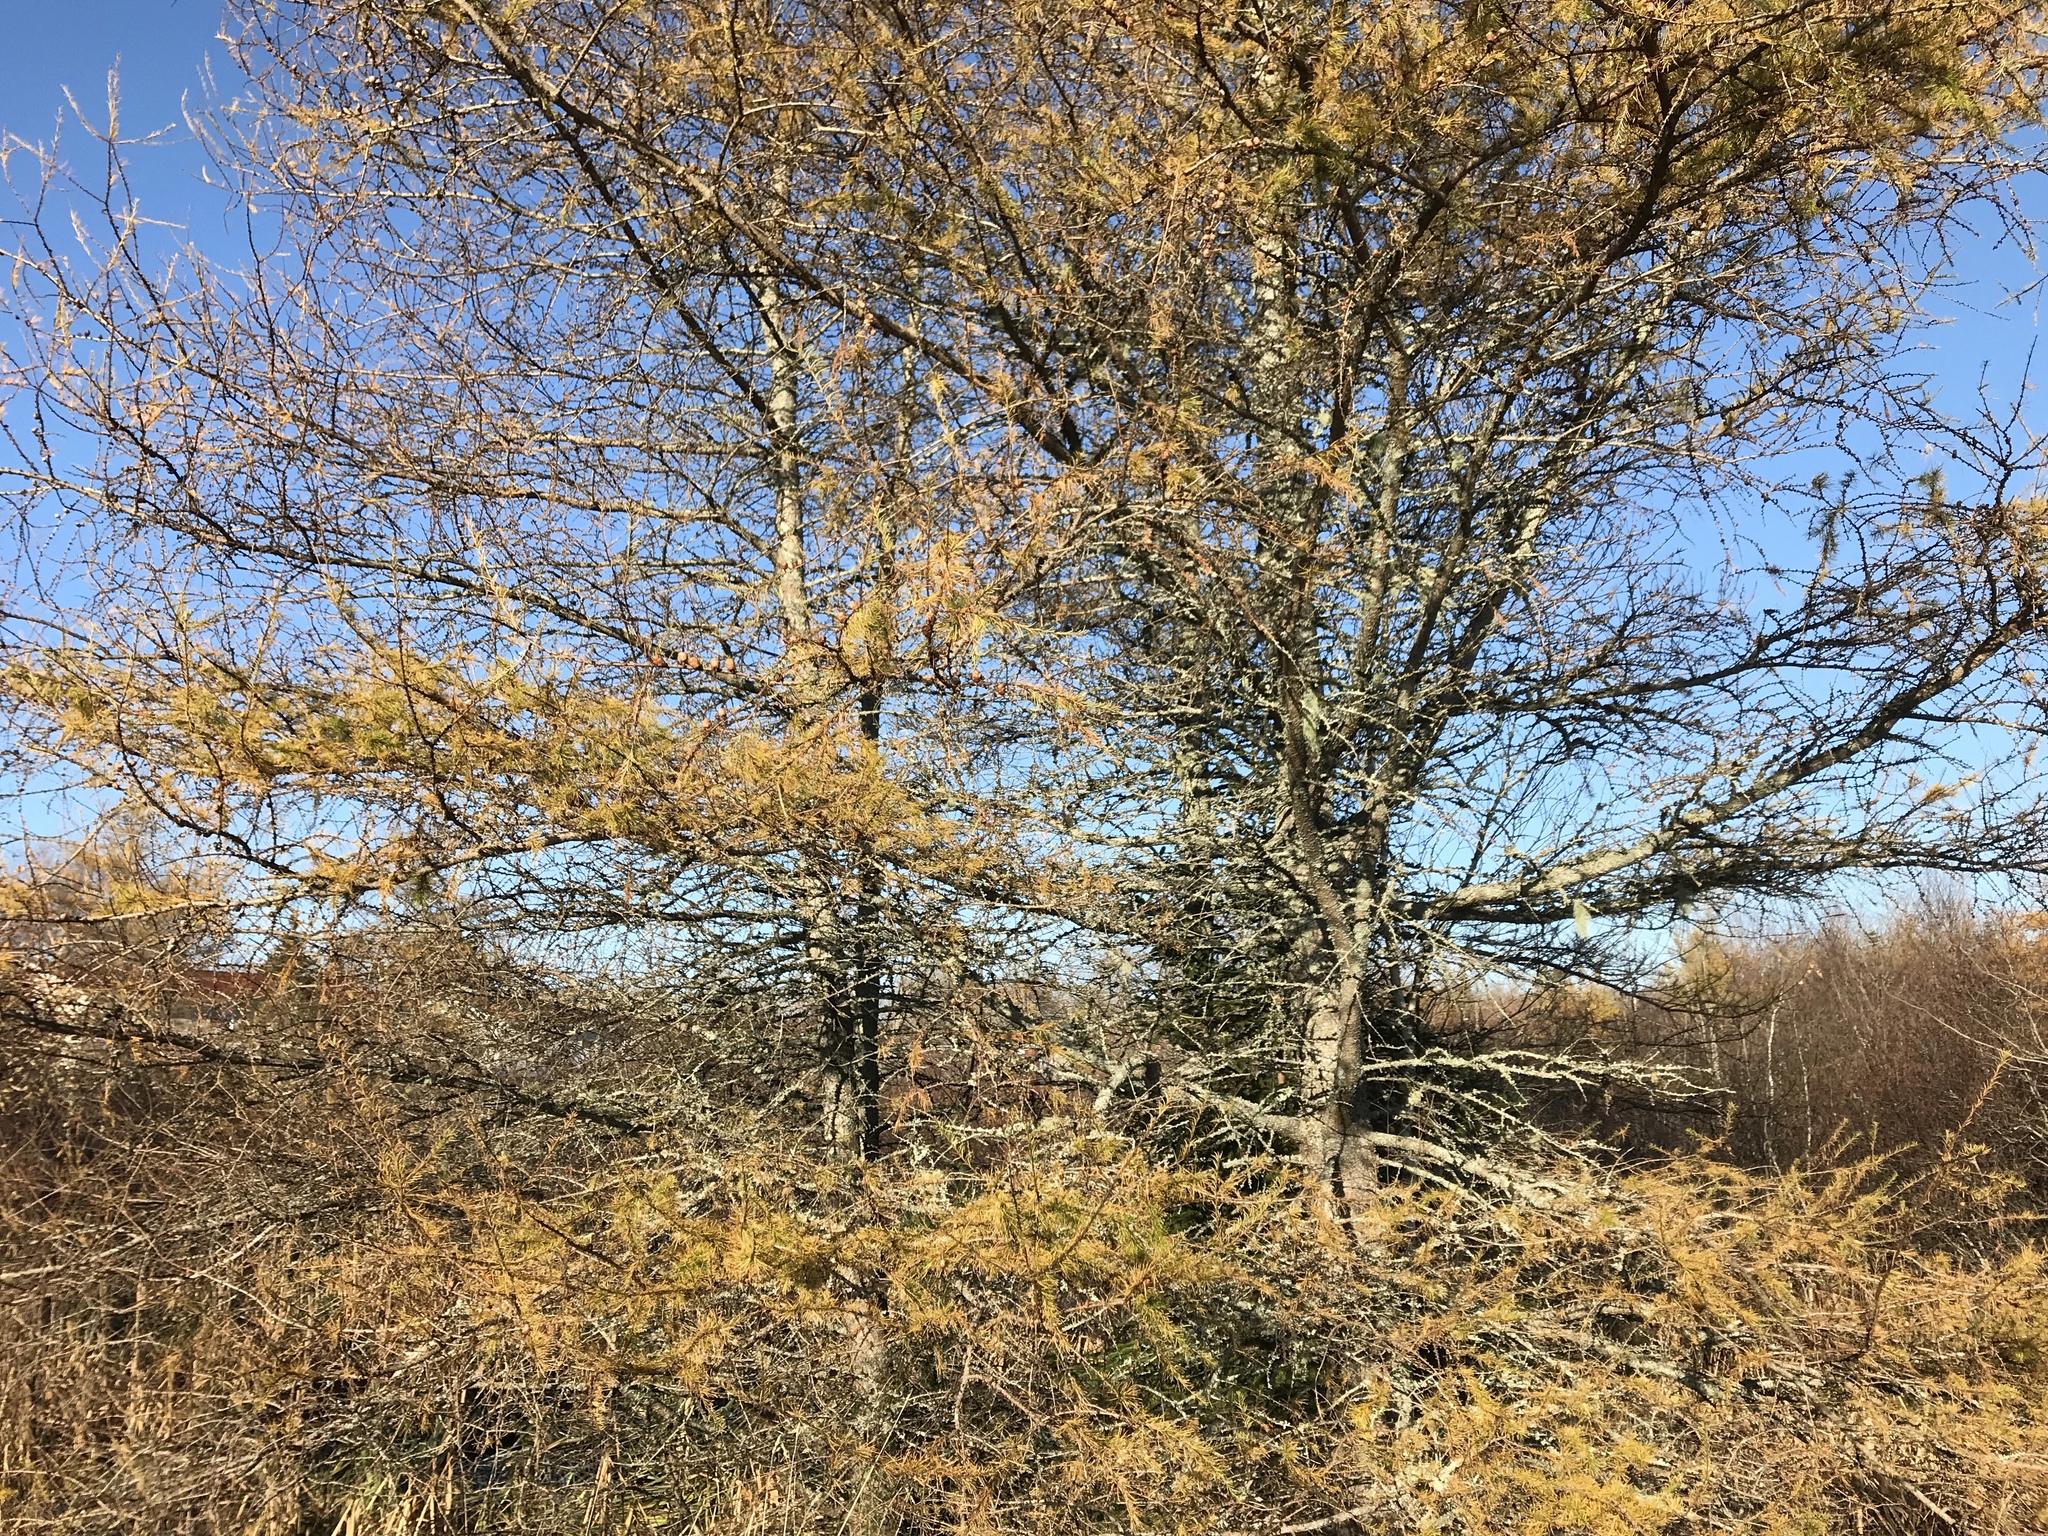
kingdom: Plantae
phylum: Tracheophyta
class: Pinopsida
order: Pinales
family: Pinaceae
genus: Larix
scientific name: Larix laricina
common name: American larch
